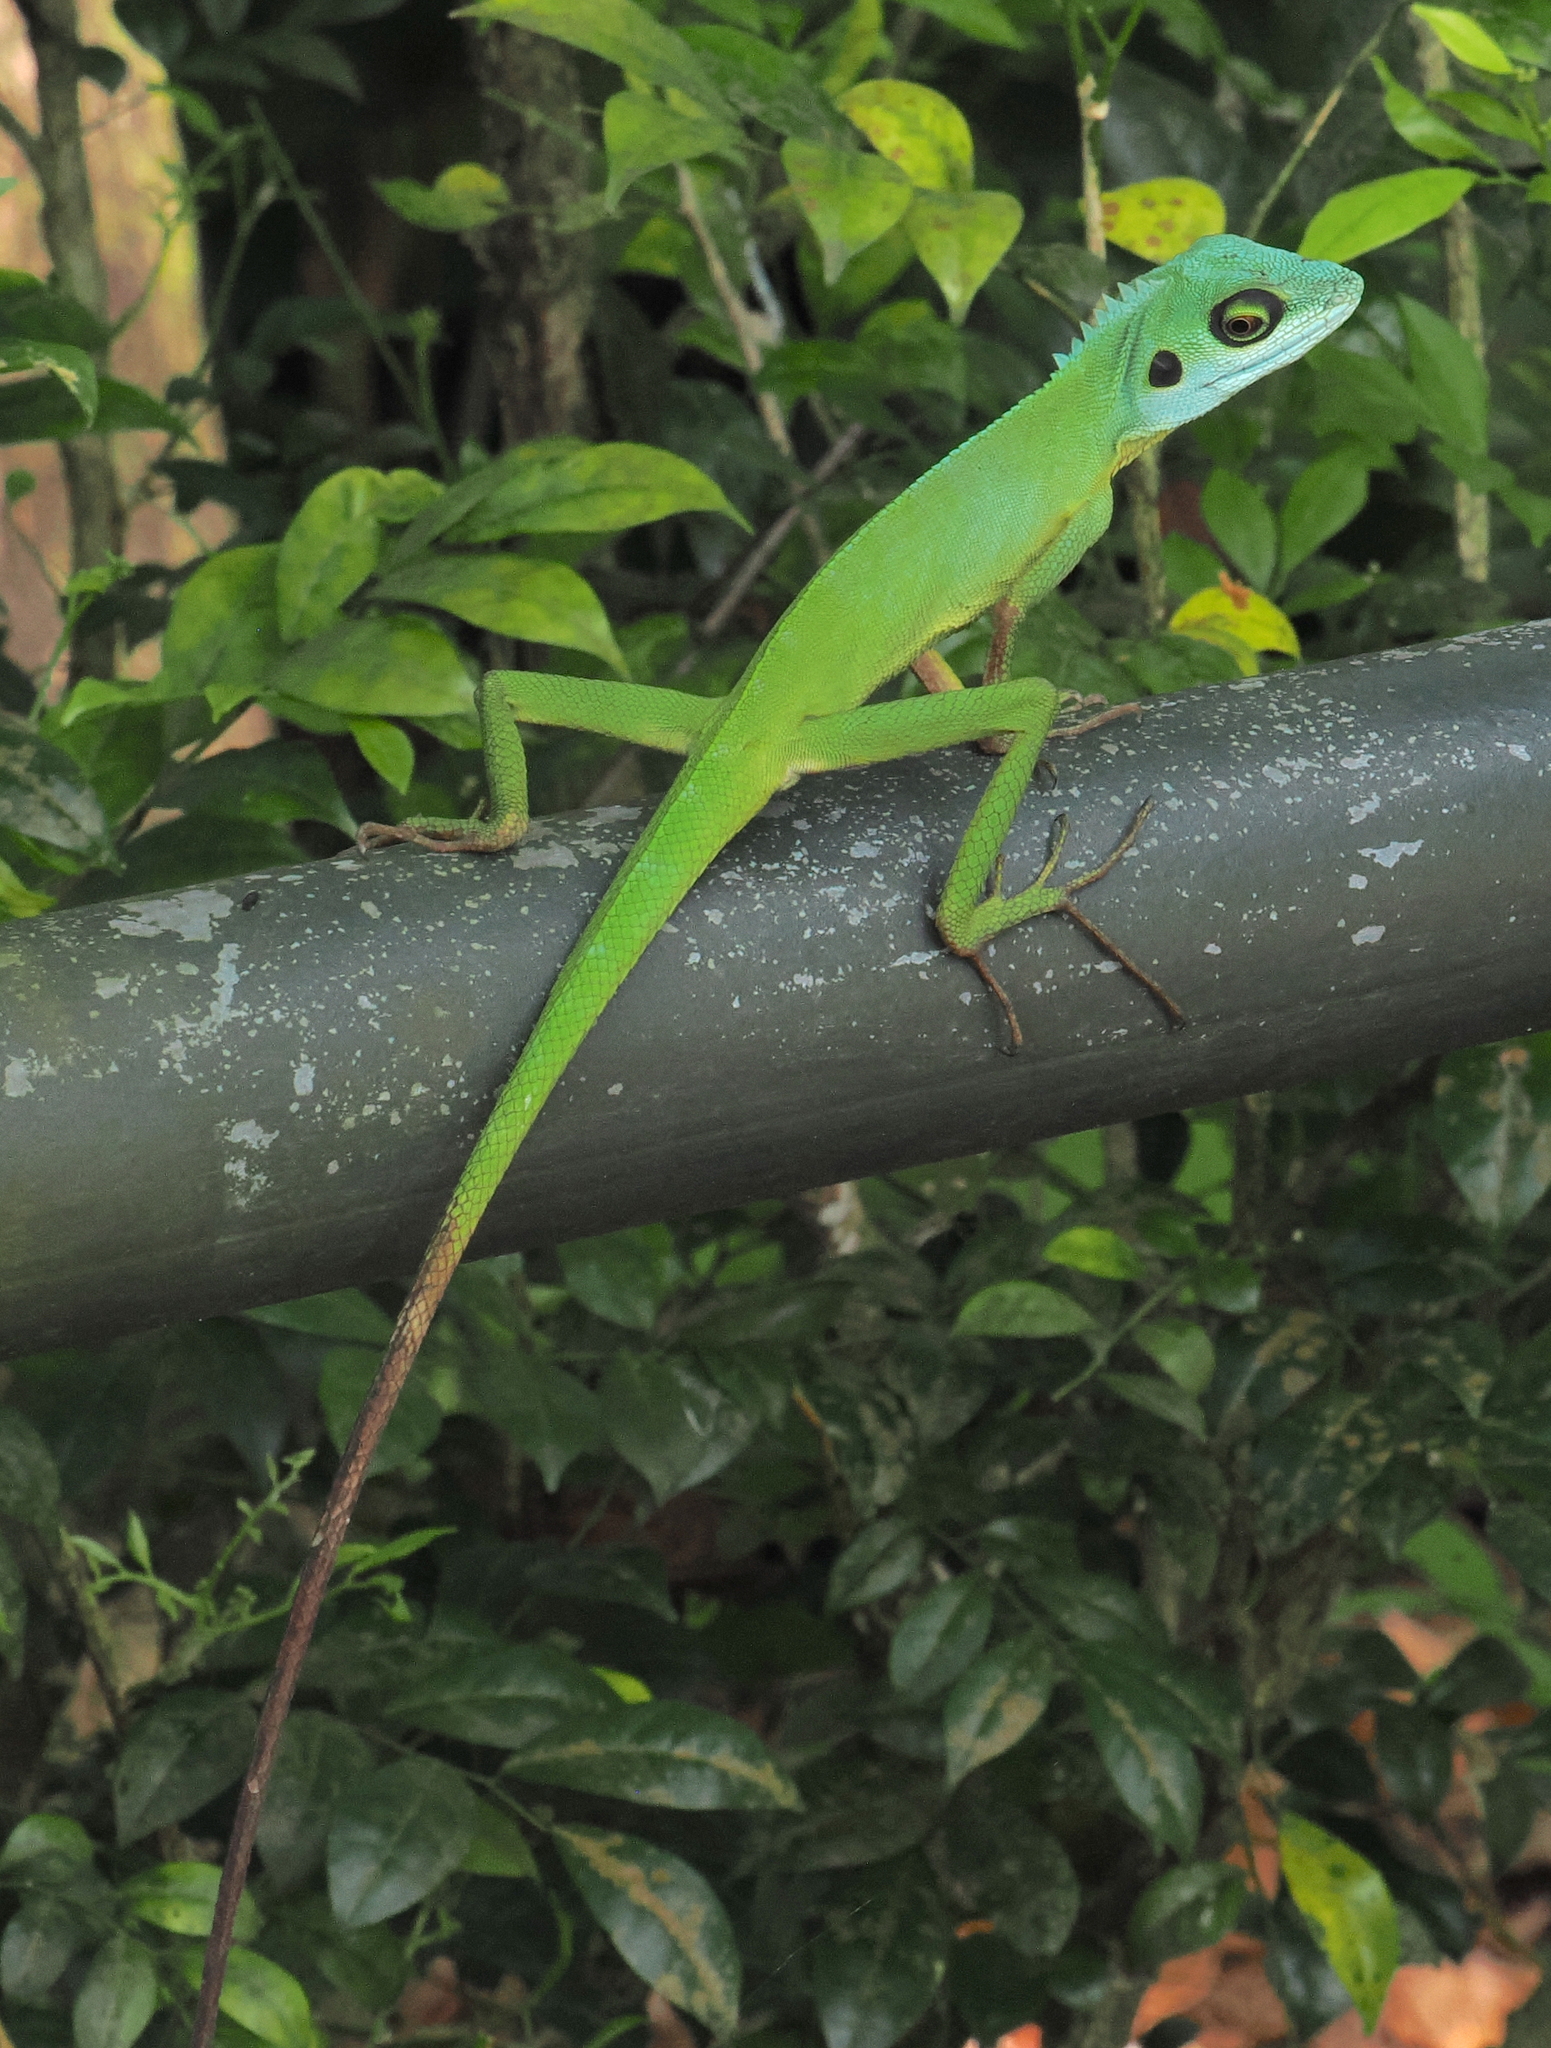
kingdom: Animalia
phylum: Chordata
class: Squamata
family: Agamidae
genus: Bronchocela
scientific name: Bronchocela cristatella
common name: Green crested lizard
